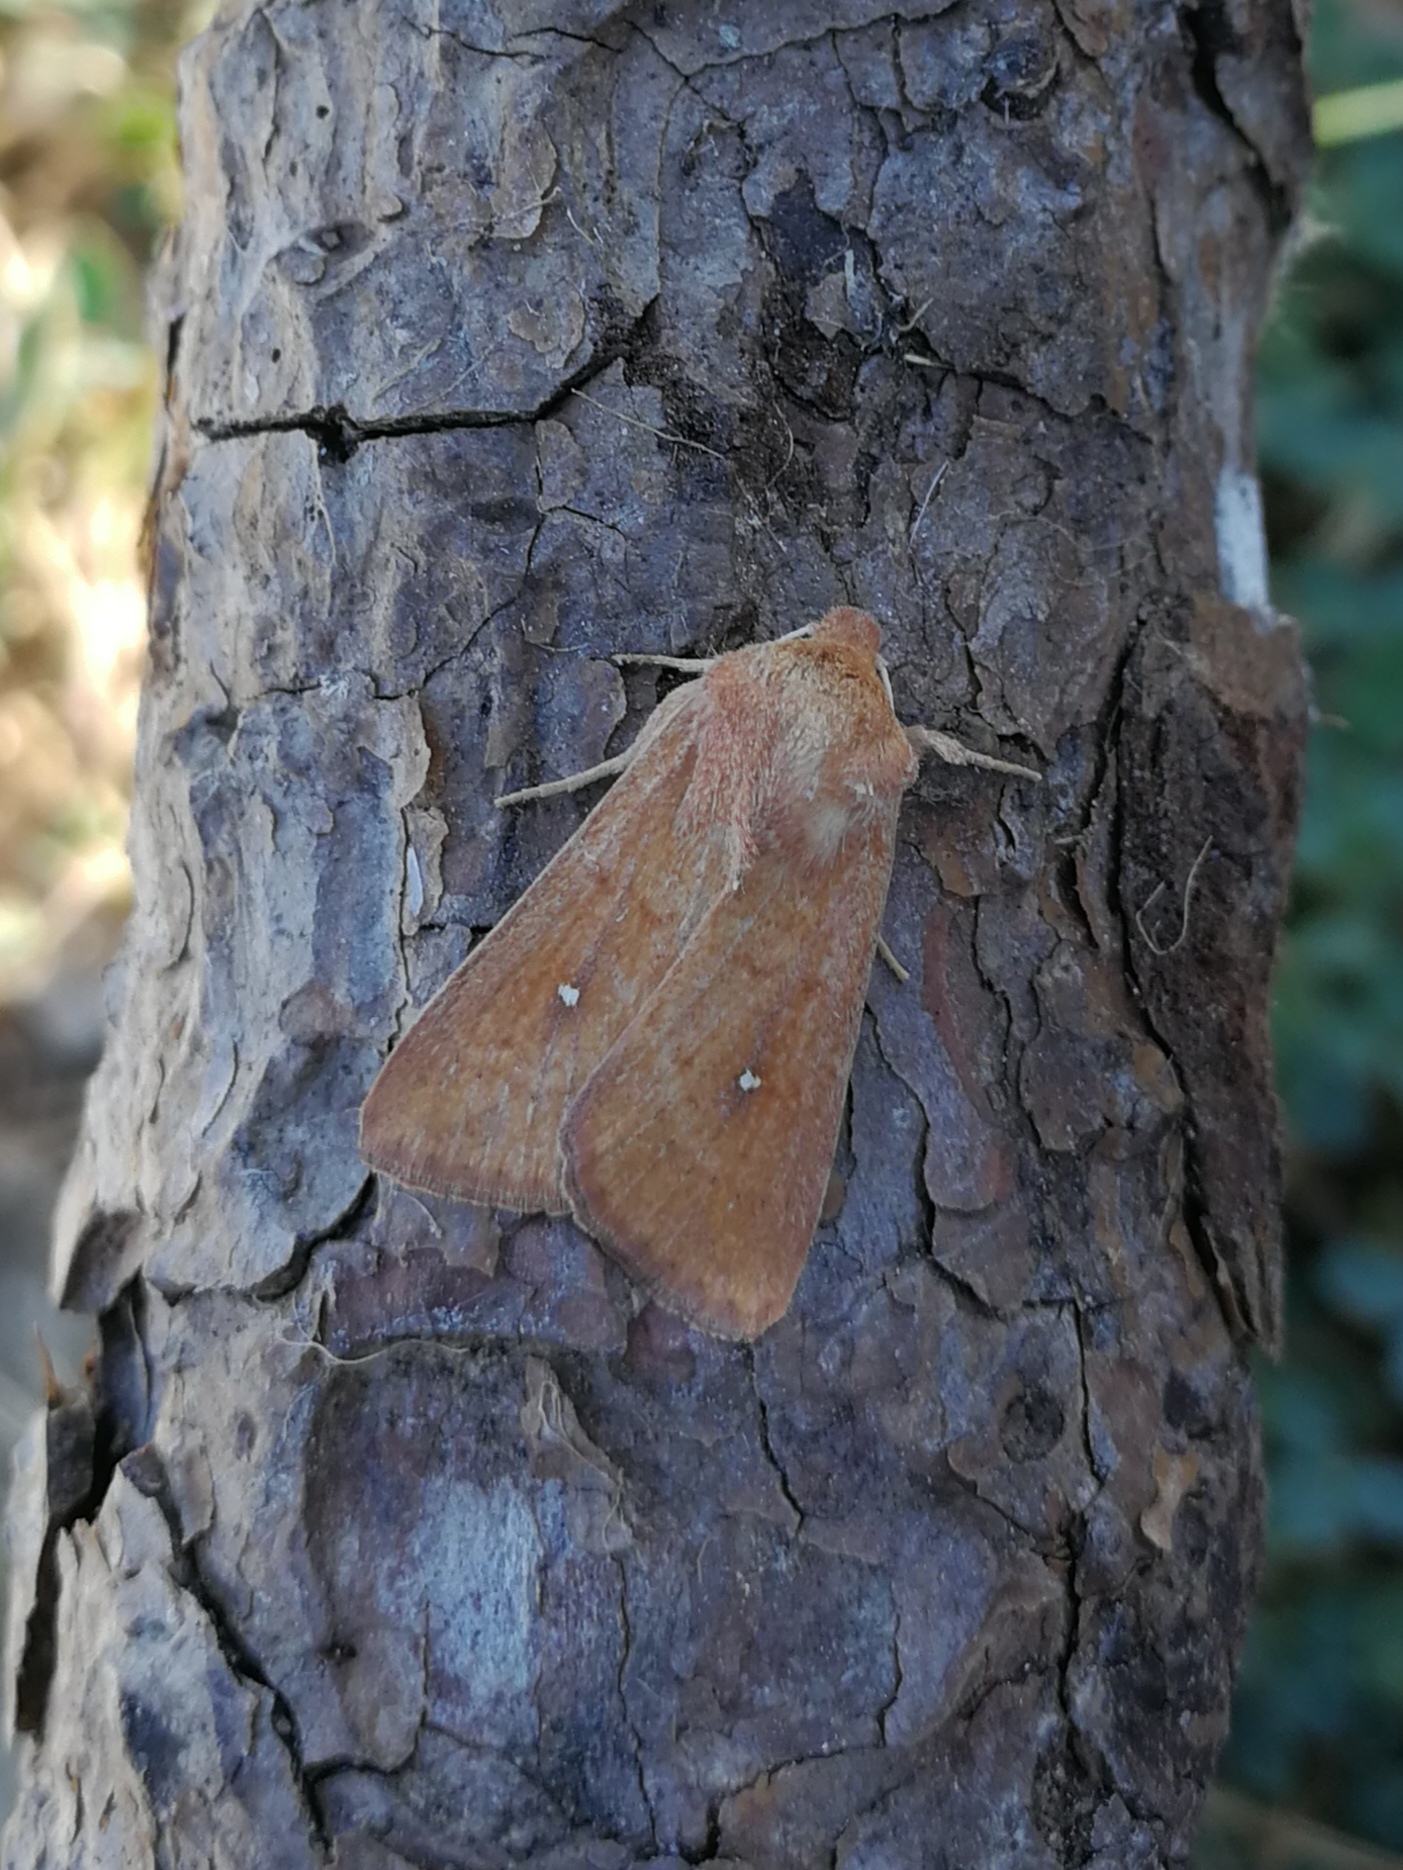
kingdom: Animalia
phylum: Arthropoda
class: Insecta
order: Lepidoptera
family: Noctuidae
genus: Mythimna
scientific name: Mythimna albipuncta
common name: White-point
